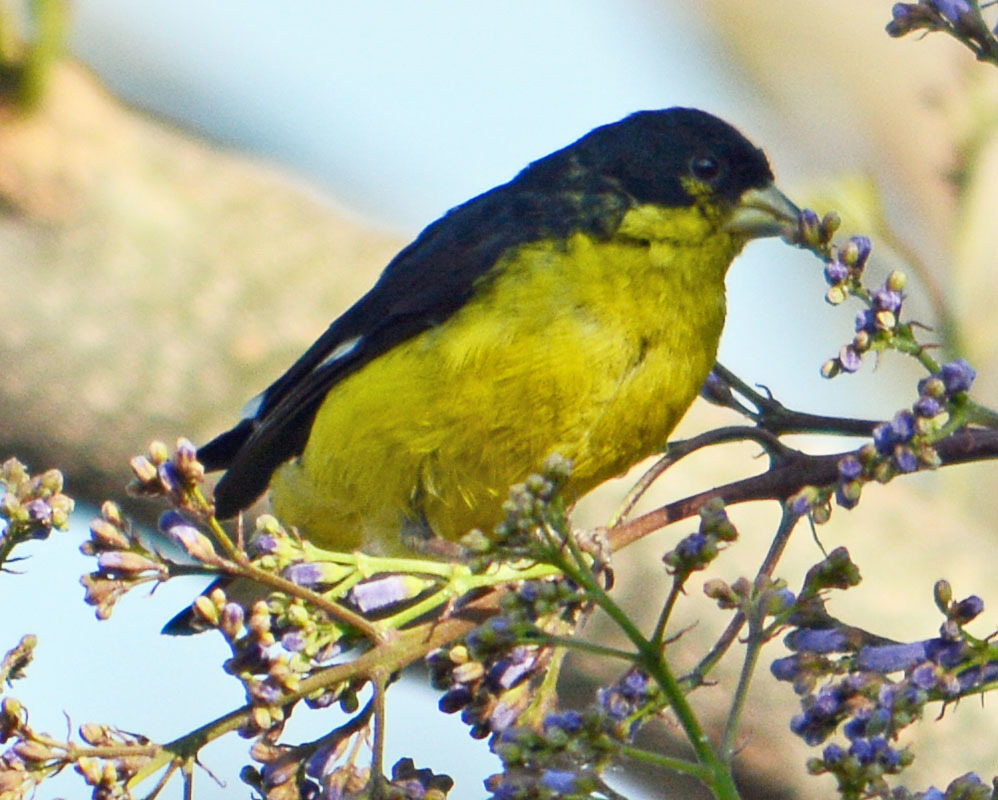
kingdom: Animalia
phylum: Chordata
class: Aves
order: Passeriformes
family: Fringillidae
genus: Spinus
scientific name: Spinus psaltria
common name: Lesser goldfinch
